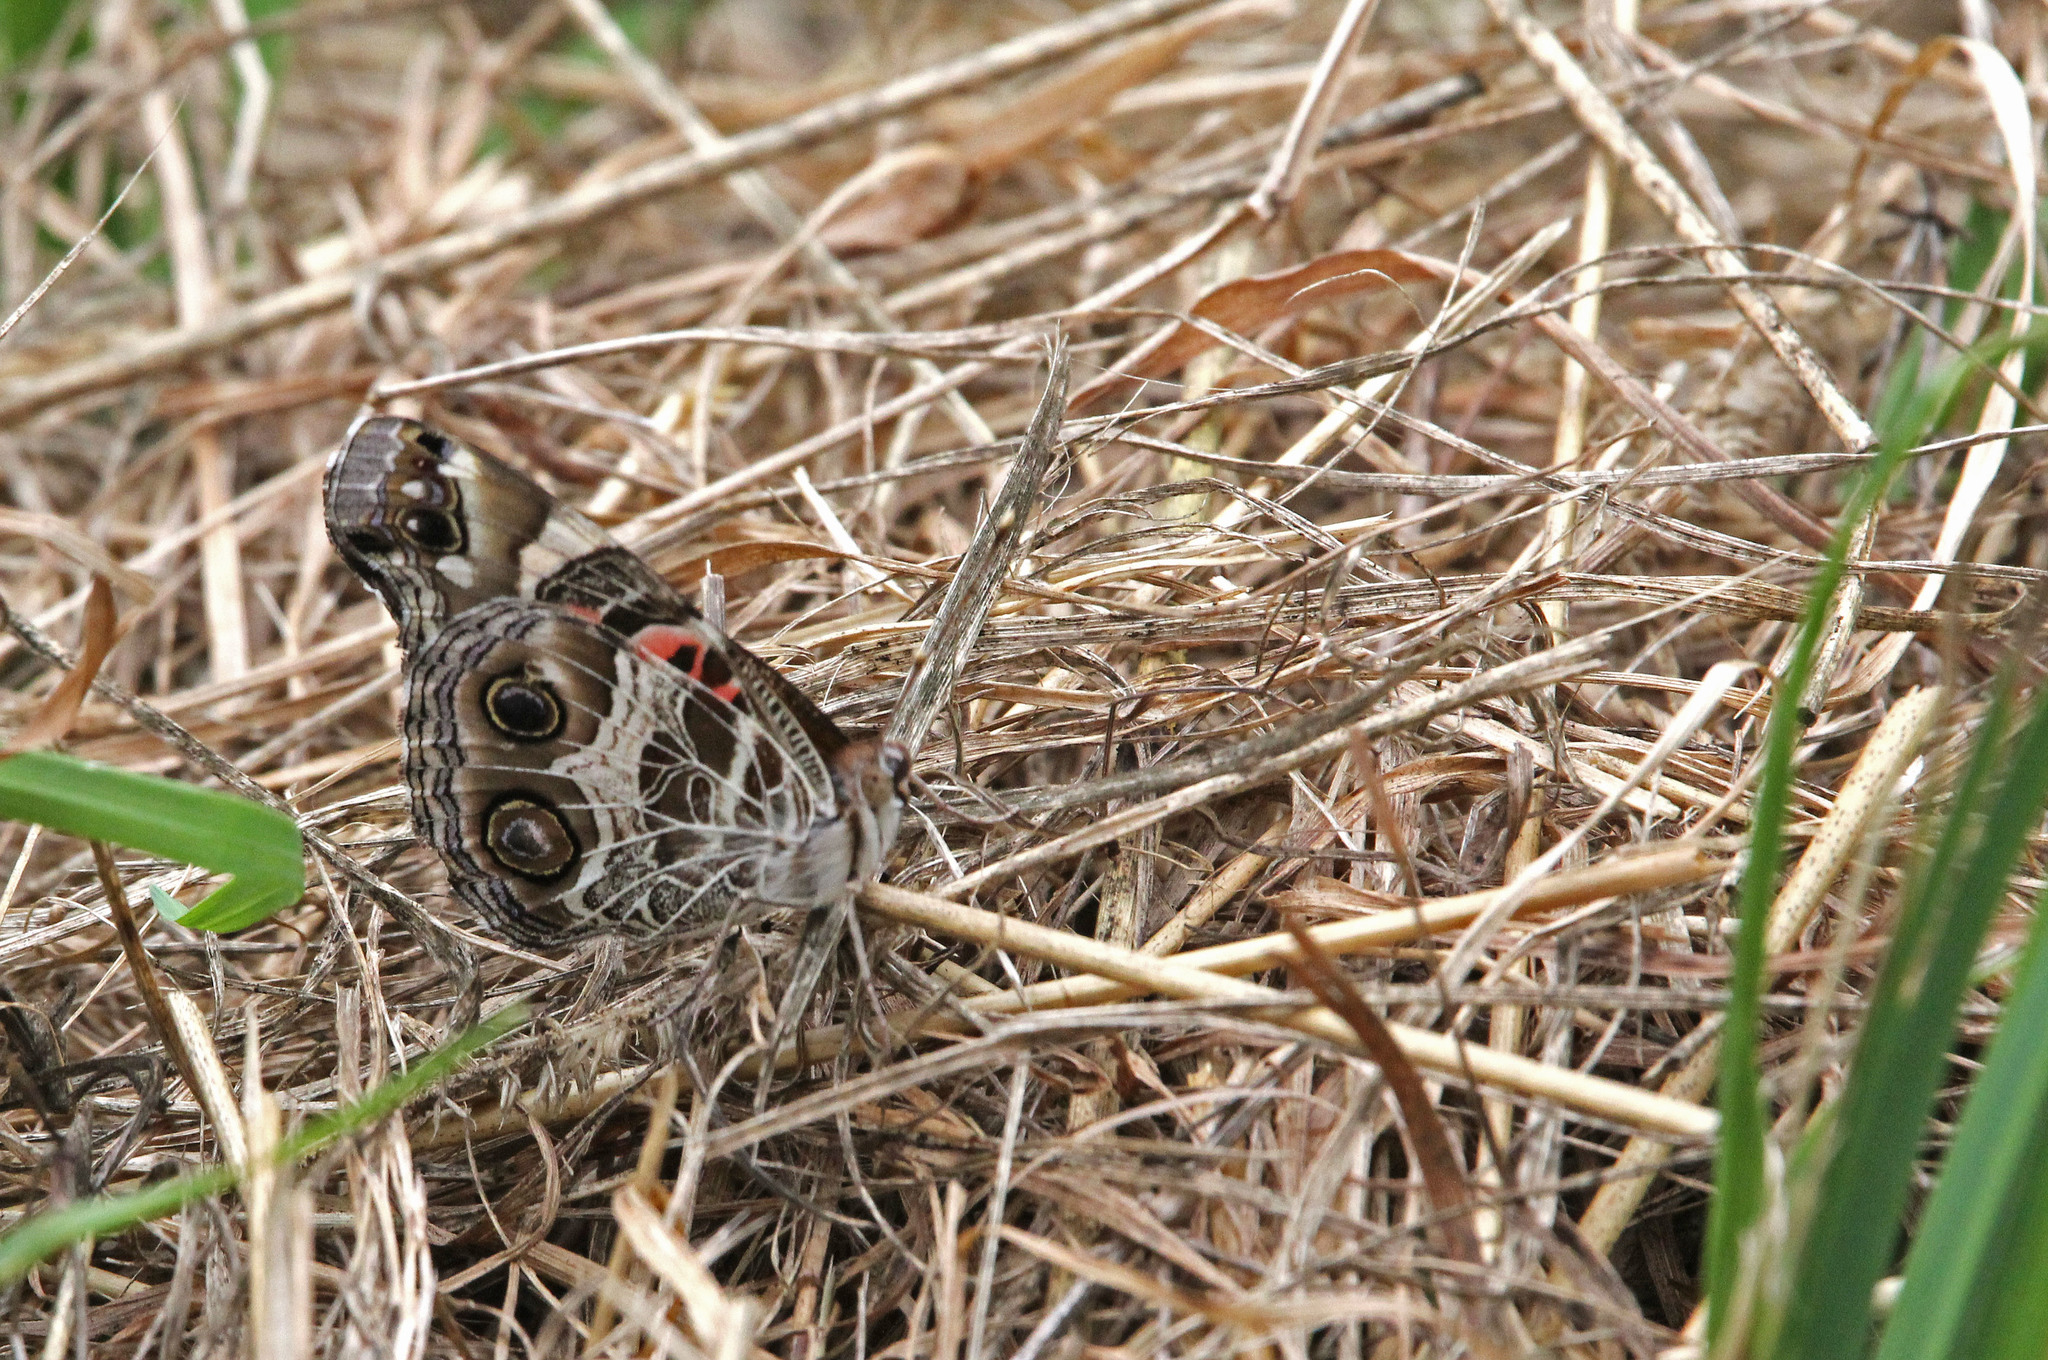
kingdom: Animalia
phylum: Arthropoda
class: Insecta
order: Lepidoptera
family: Nymphalidae
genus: Vanessa
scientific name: Vanessa virginiensis
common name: American lady
